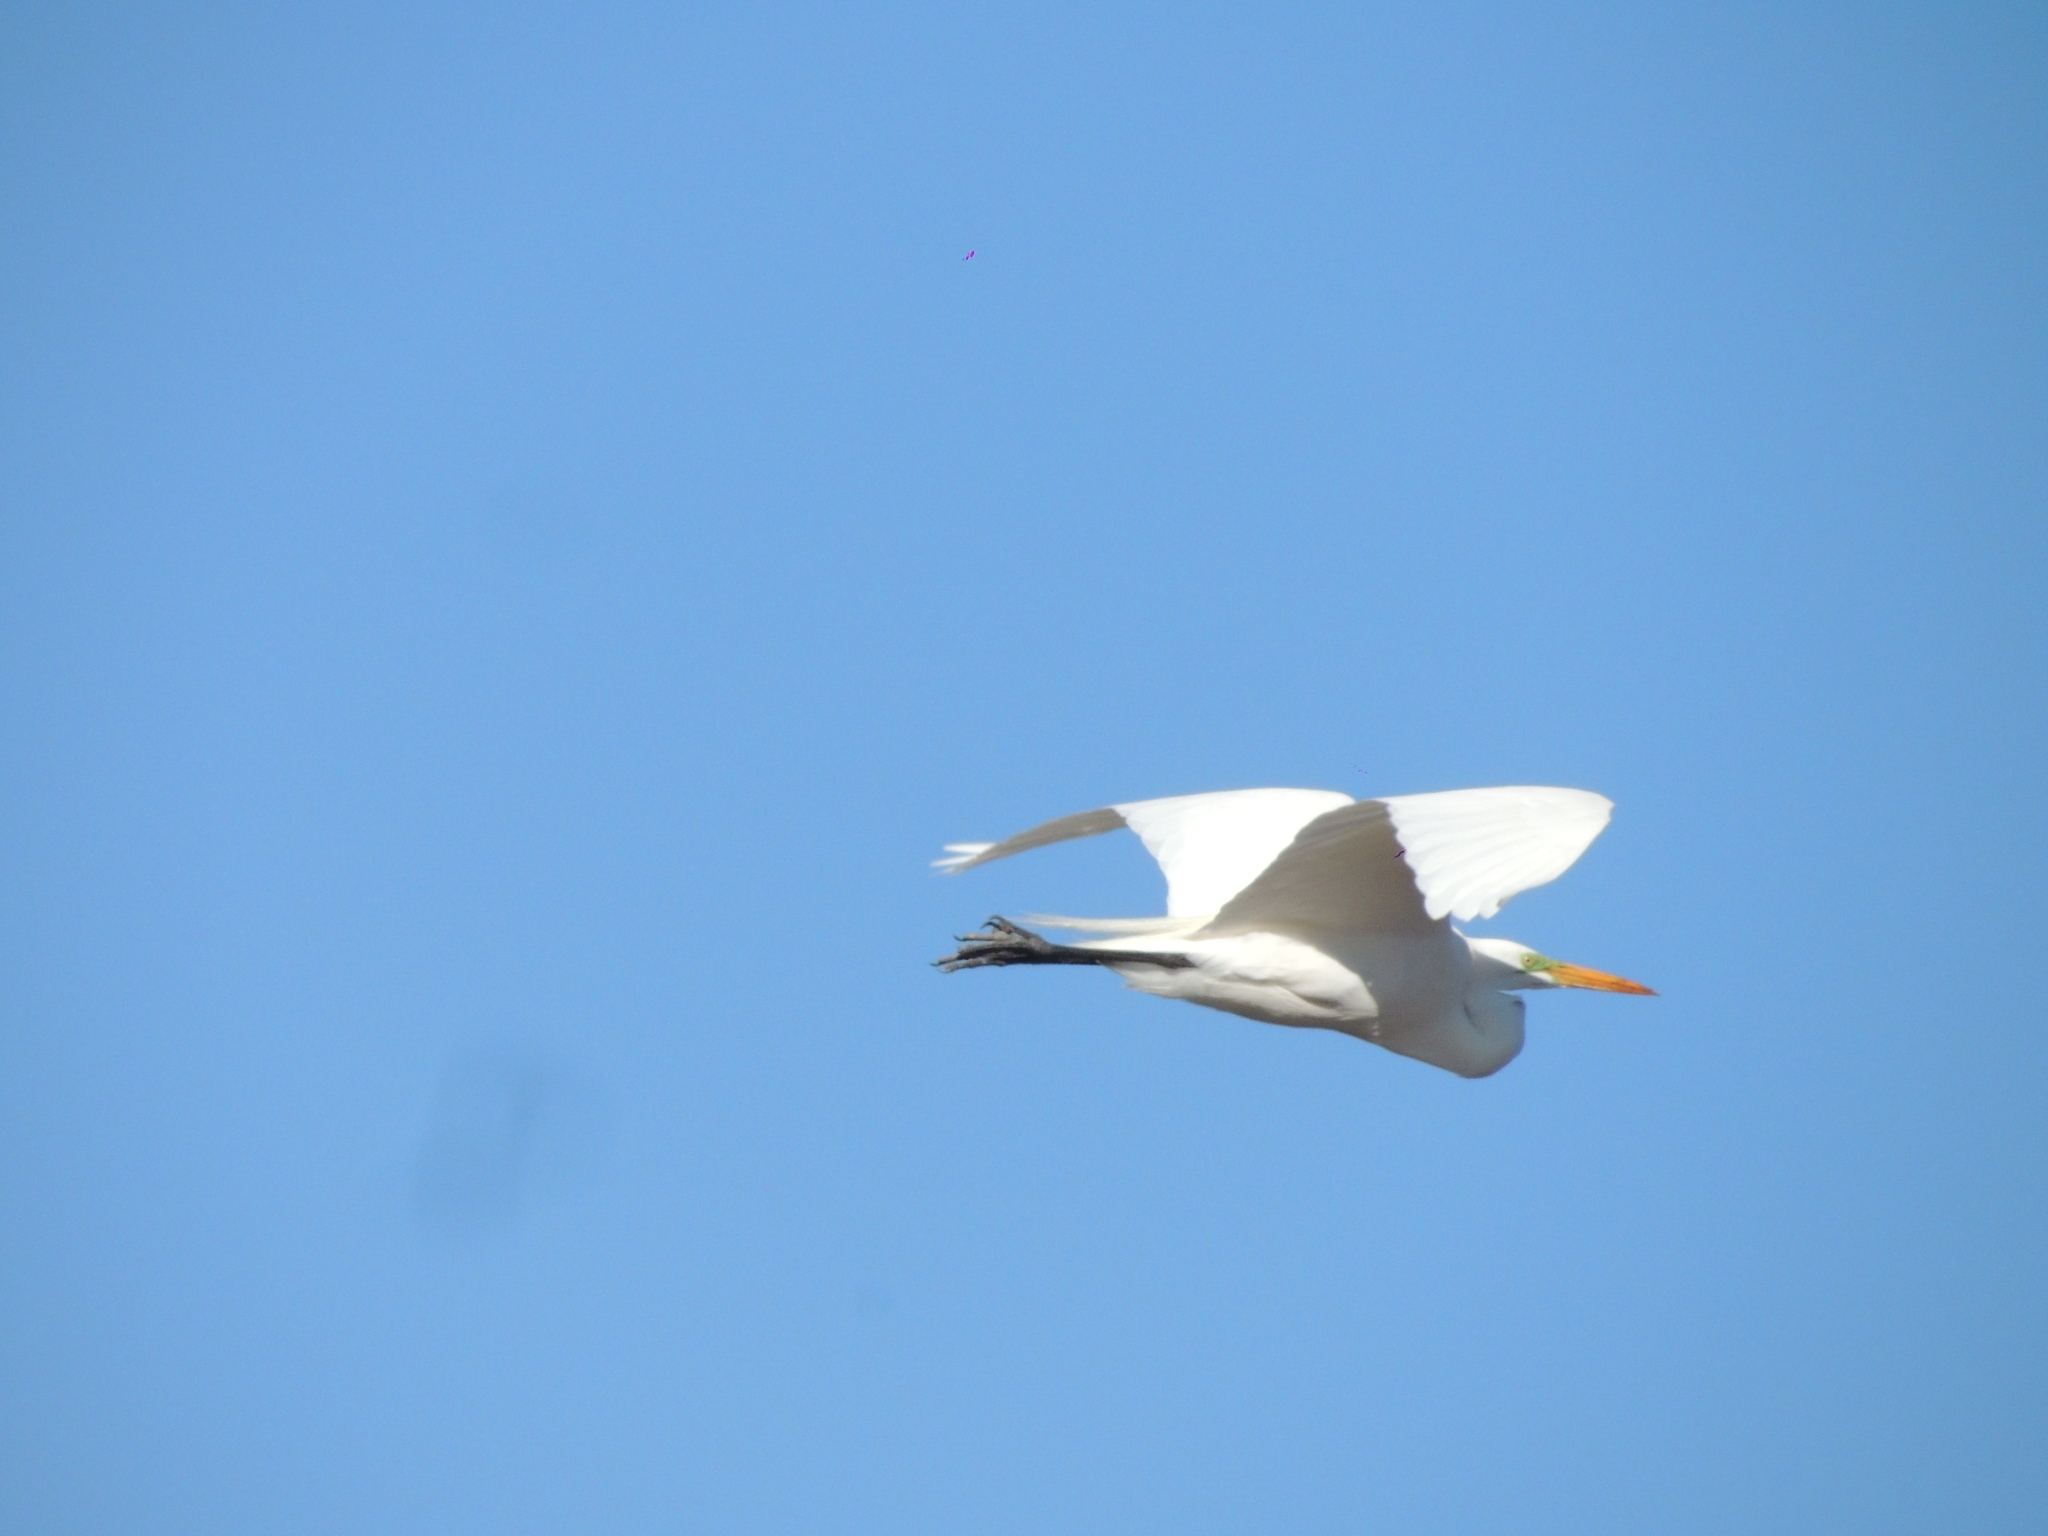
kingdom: Animalia
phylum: Chordata
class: Aves
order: Pelecaniformes
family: Ardeidae
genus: Ardea
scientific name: Ardea alba
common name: Great egret
